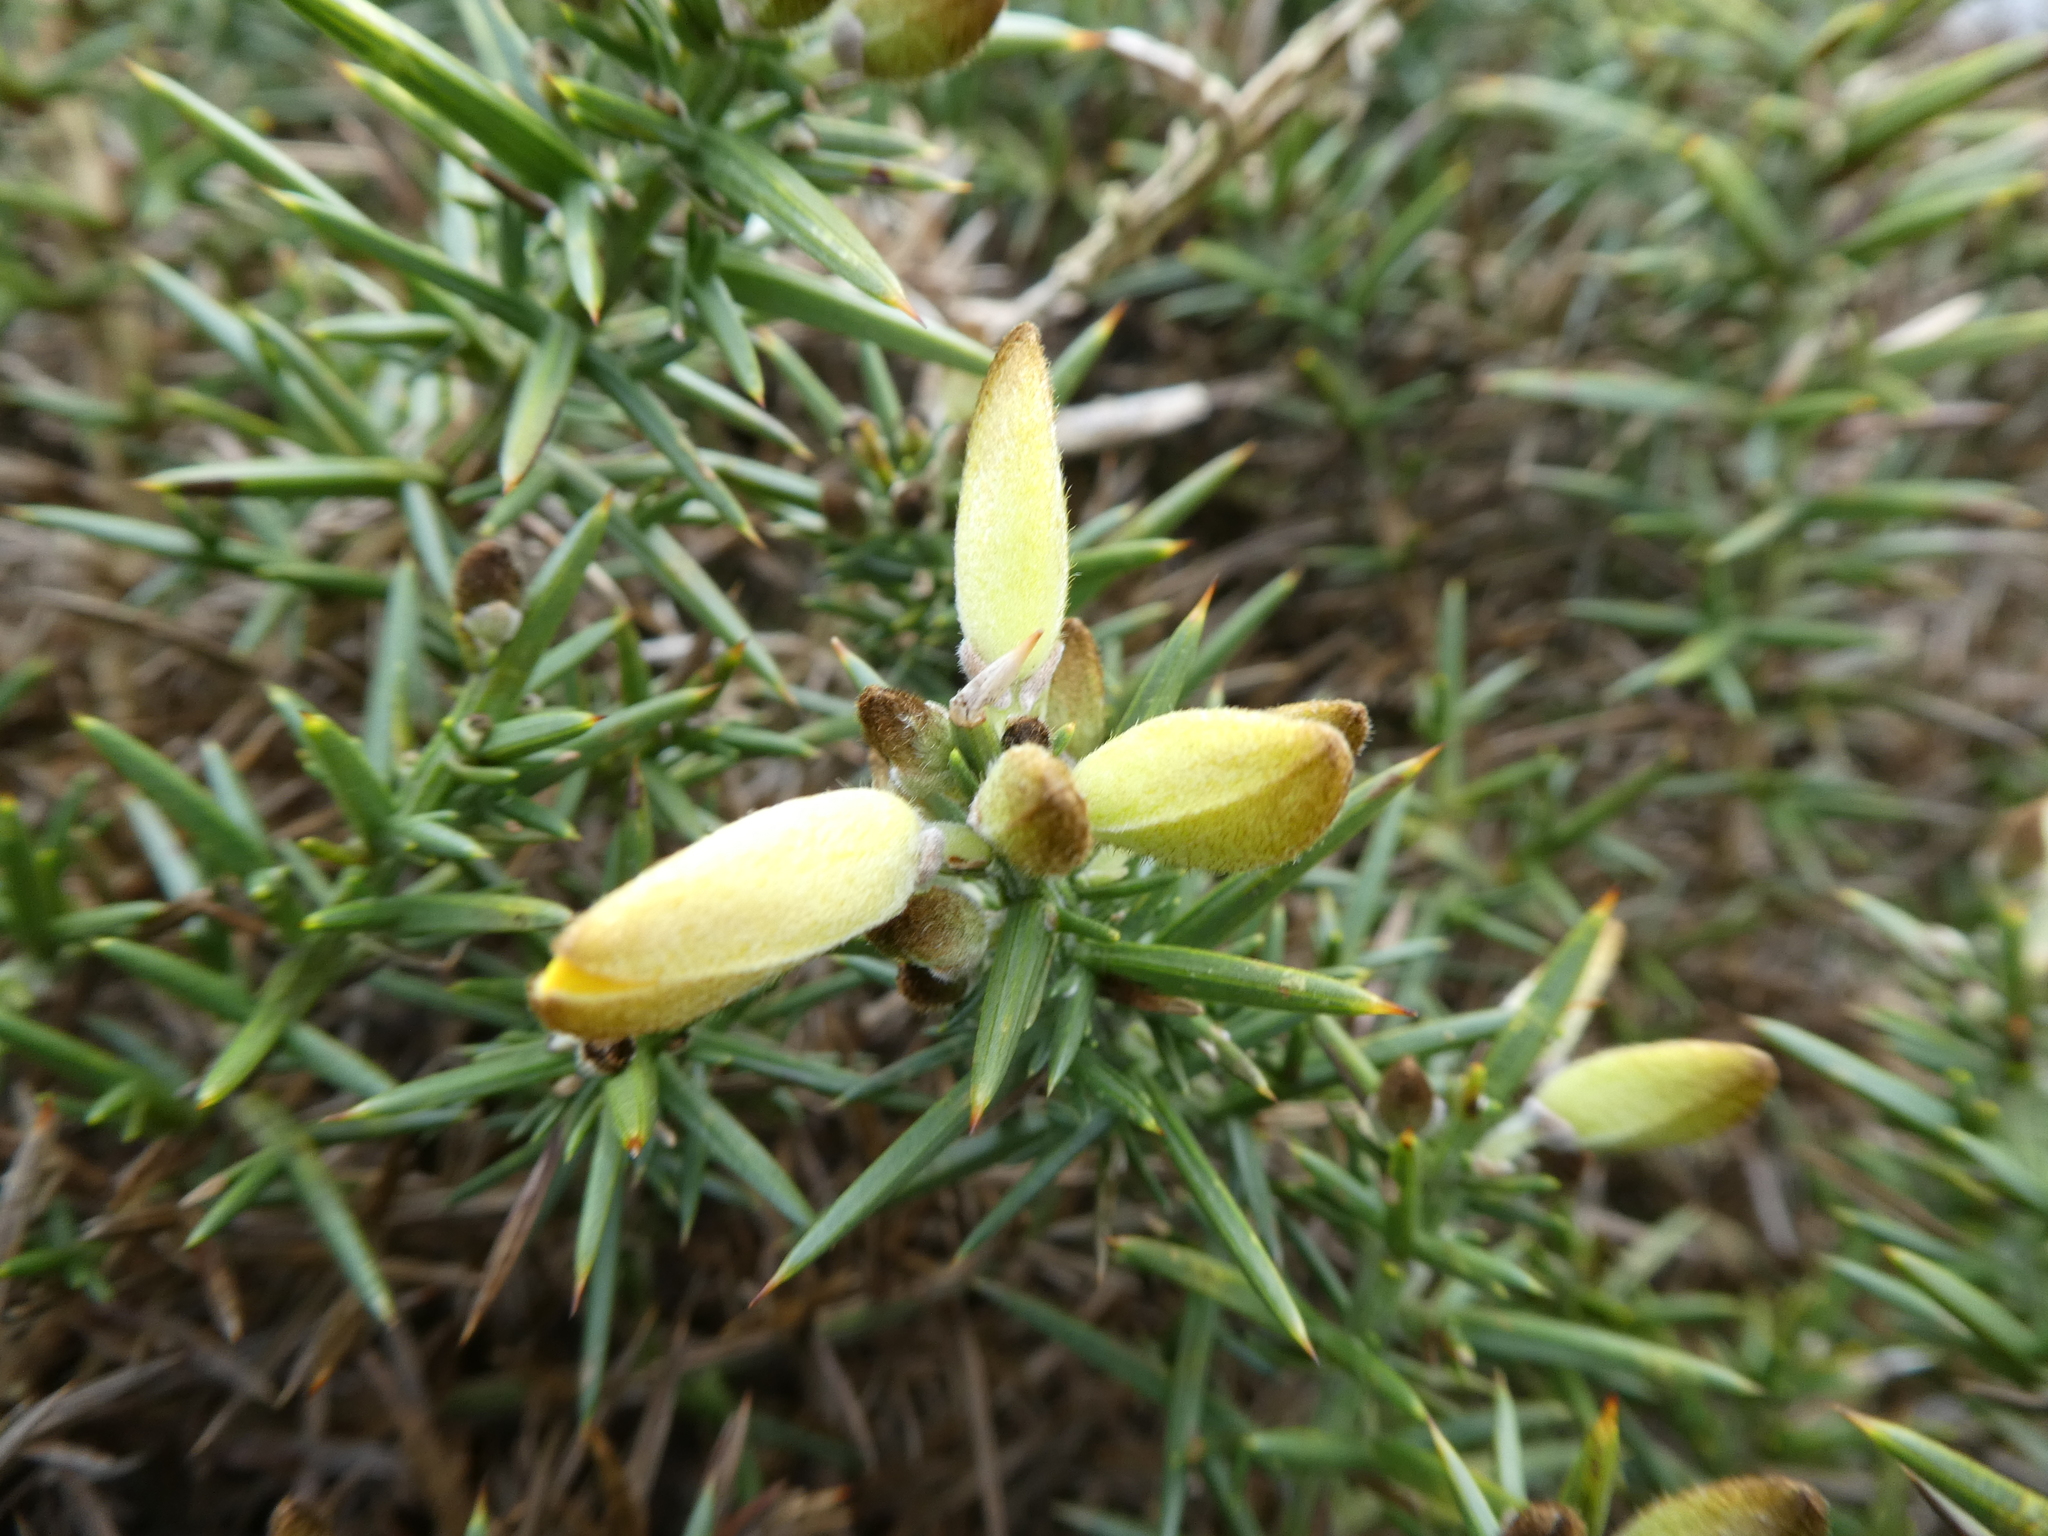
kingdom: Plantae
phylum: Tracheophyta
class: Magnoliopsida
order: Fabales
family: Fabaceae
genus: Ulex
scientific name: Ulex europaeus
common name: Common gorse
